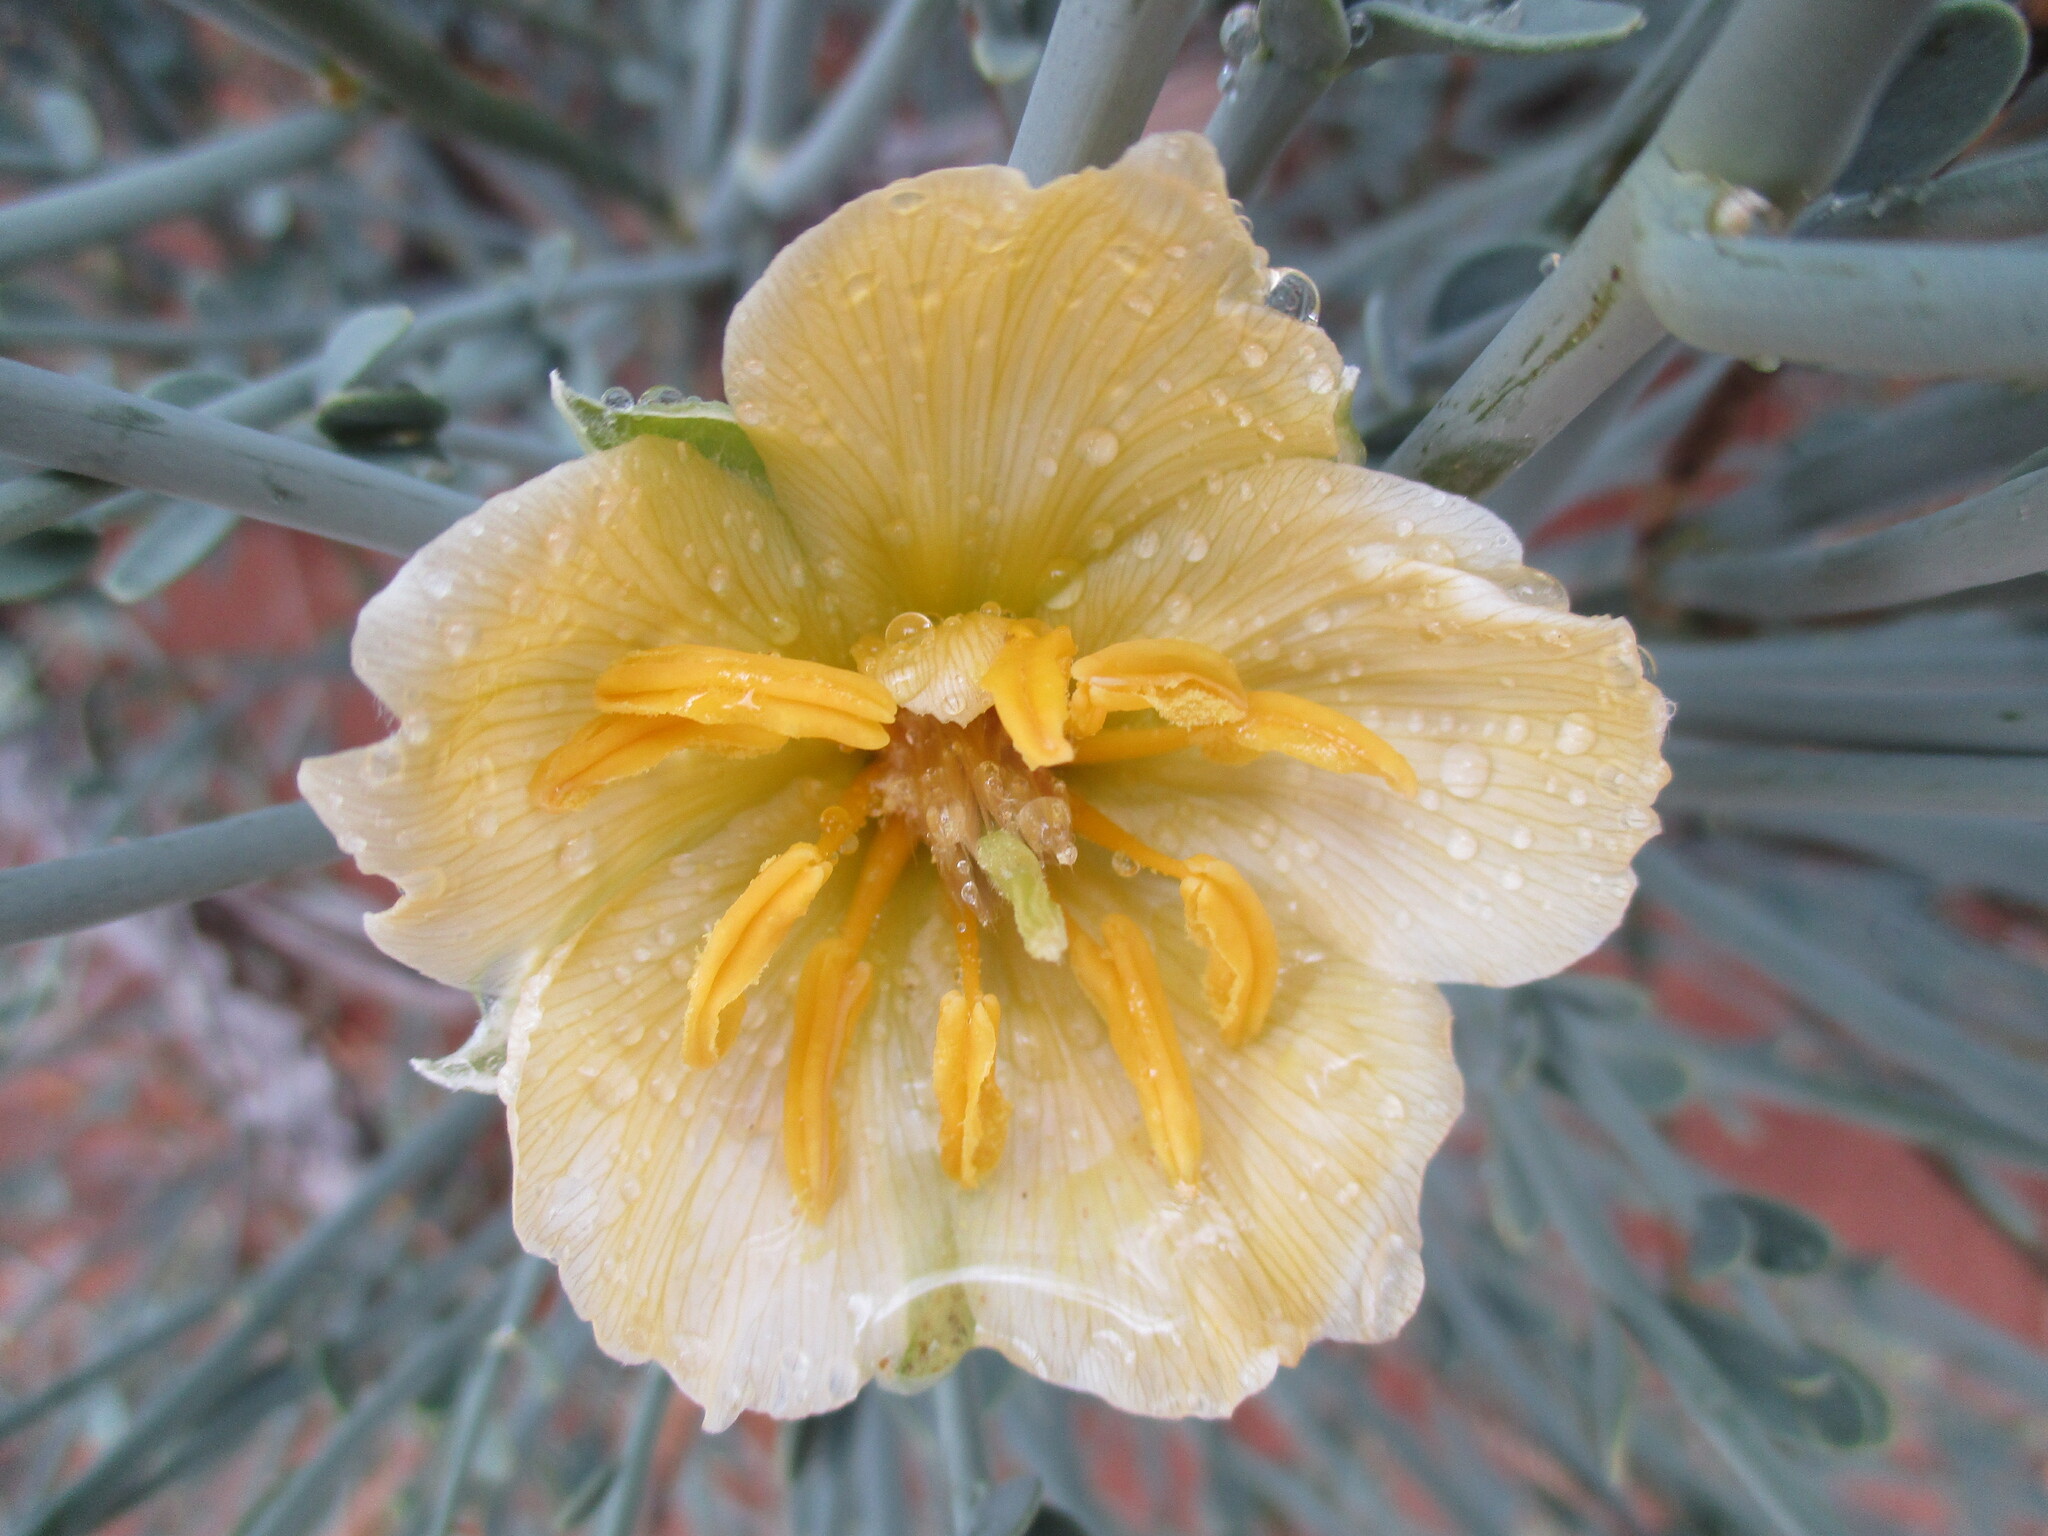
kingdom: Plantae
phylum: Tracheophyta
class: Magnoliopsida
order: Zygophyllales
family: Zygophyllaceae
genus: Sisyndite
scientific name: Sisyndite spartea
